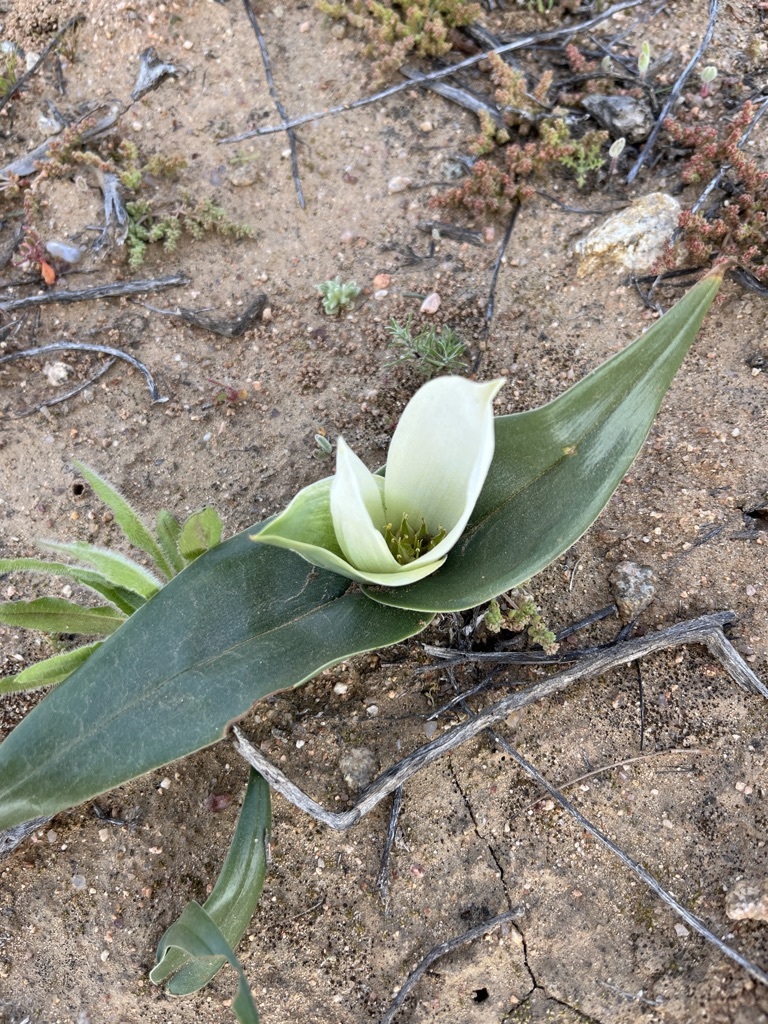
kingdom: Plantae
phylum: Tracheophyta
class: Liliopsida
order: Liliales
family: Colchicaceae
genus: Colchicum
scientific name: Colchicum capense
